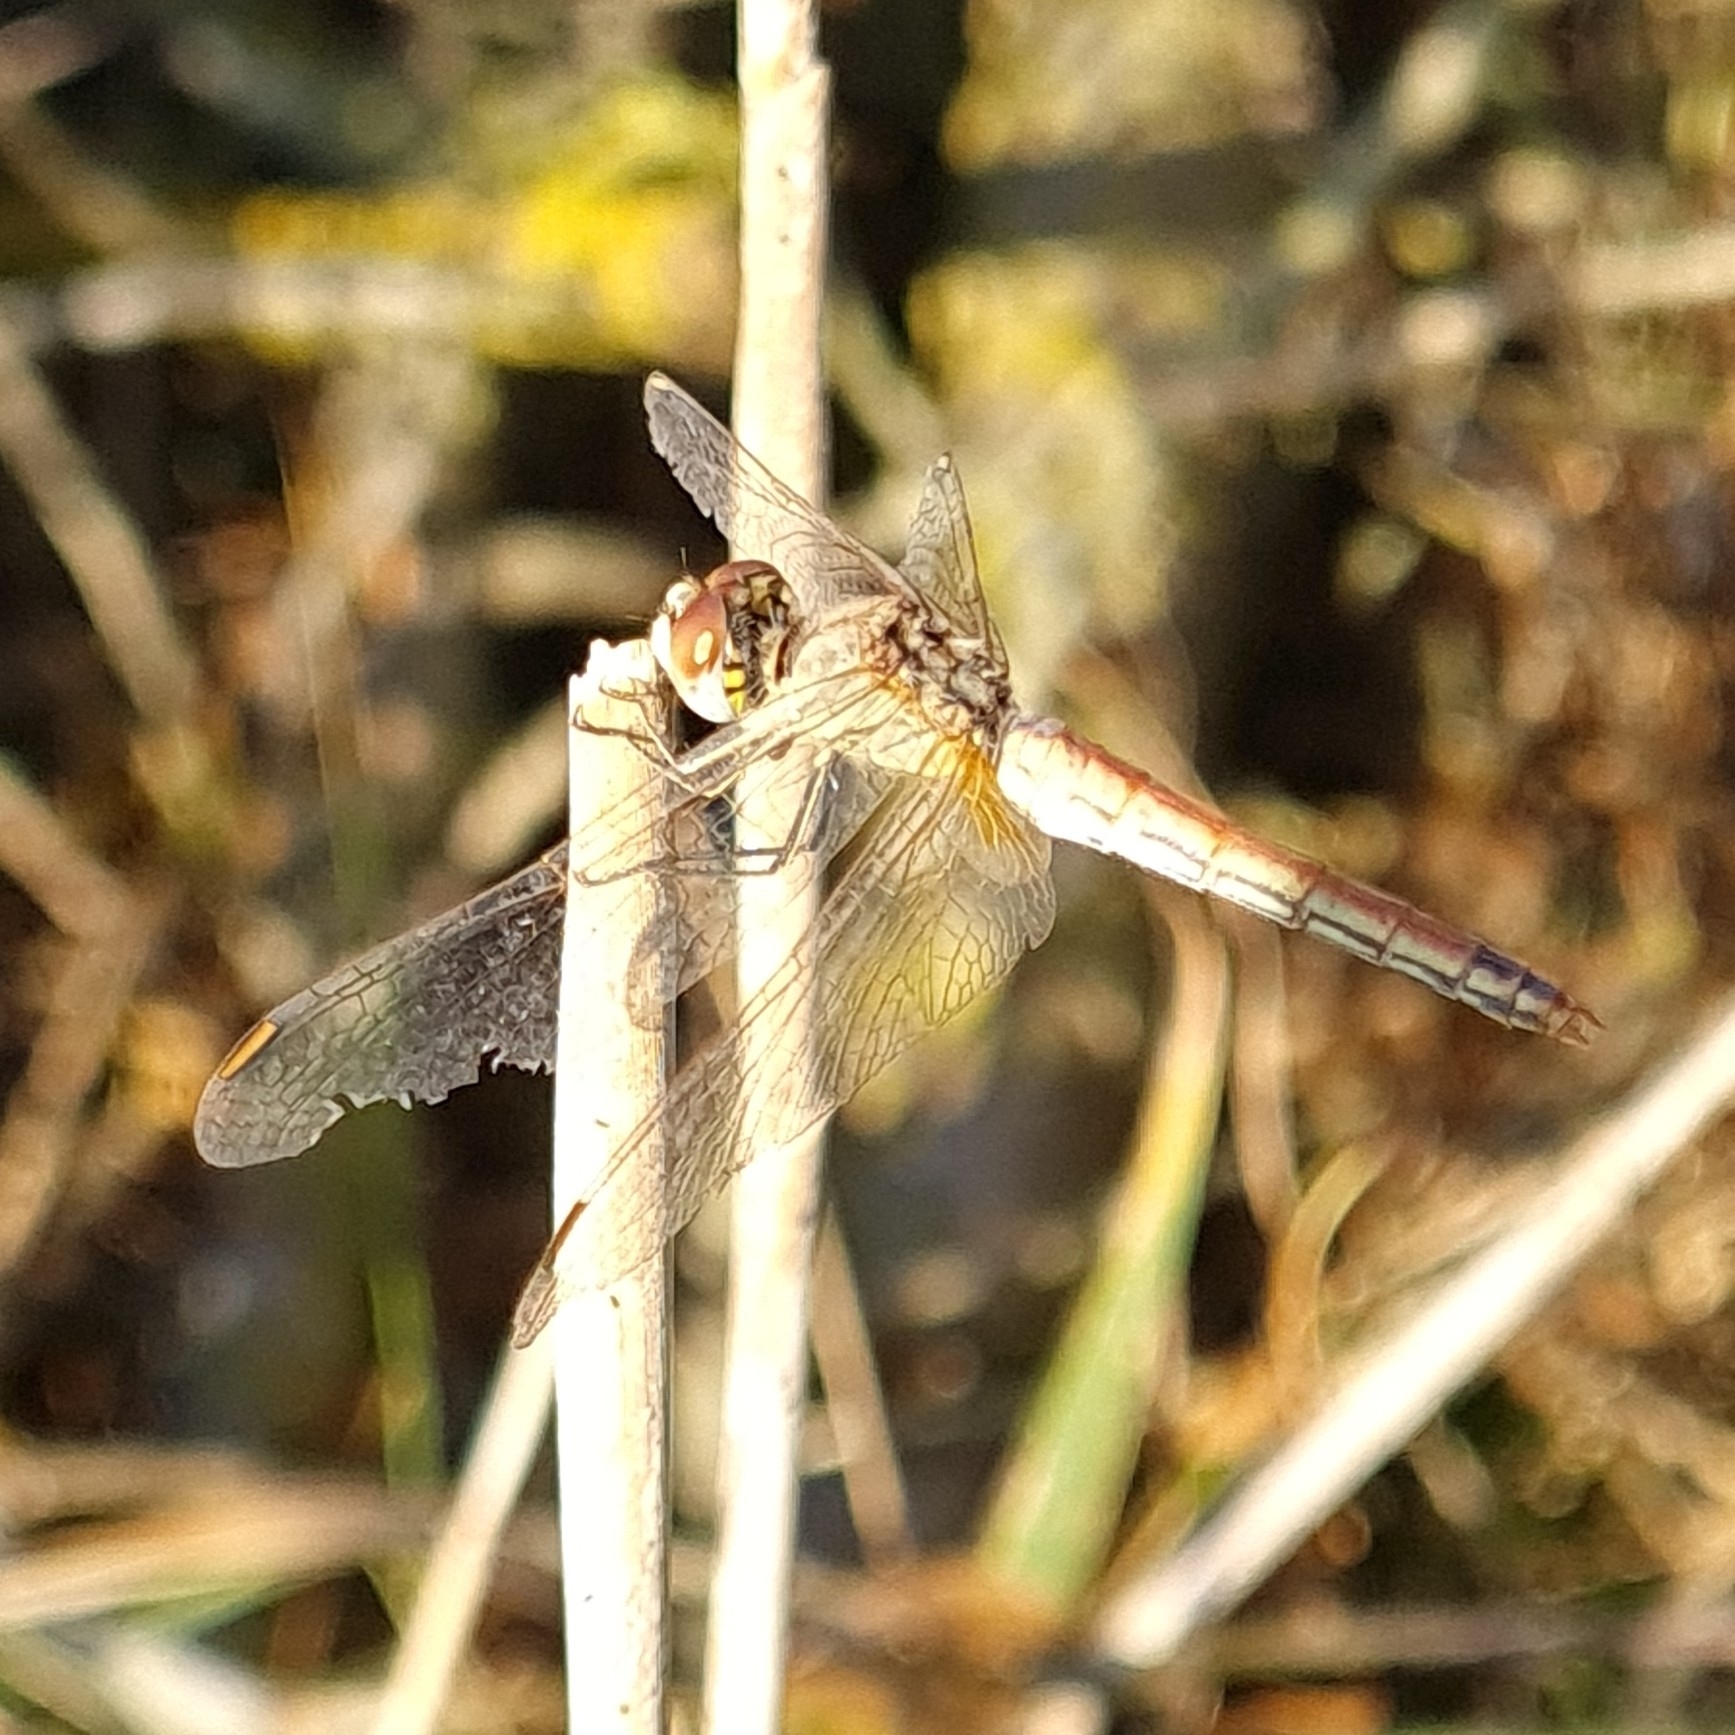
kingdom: Animalia
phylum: Arthropoda
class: Insecta
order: Odonata
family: Libellulidae
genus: Sympetrum
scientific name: Sympetrum fonscolombii
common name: Red-veined darter
